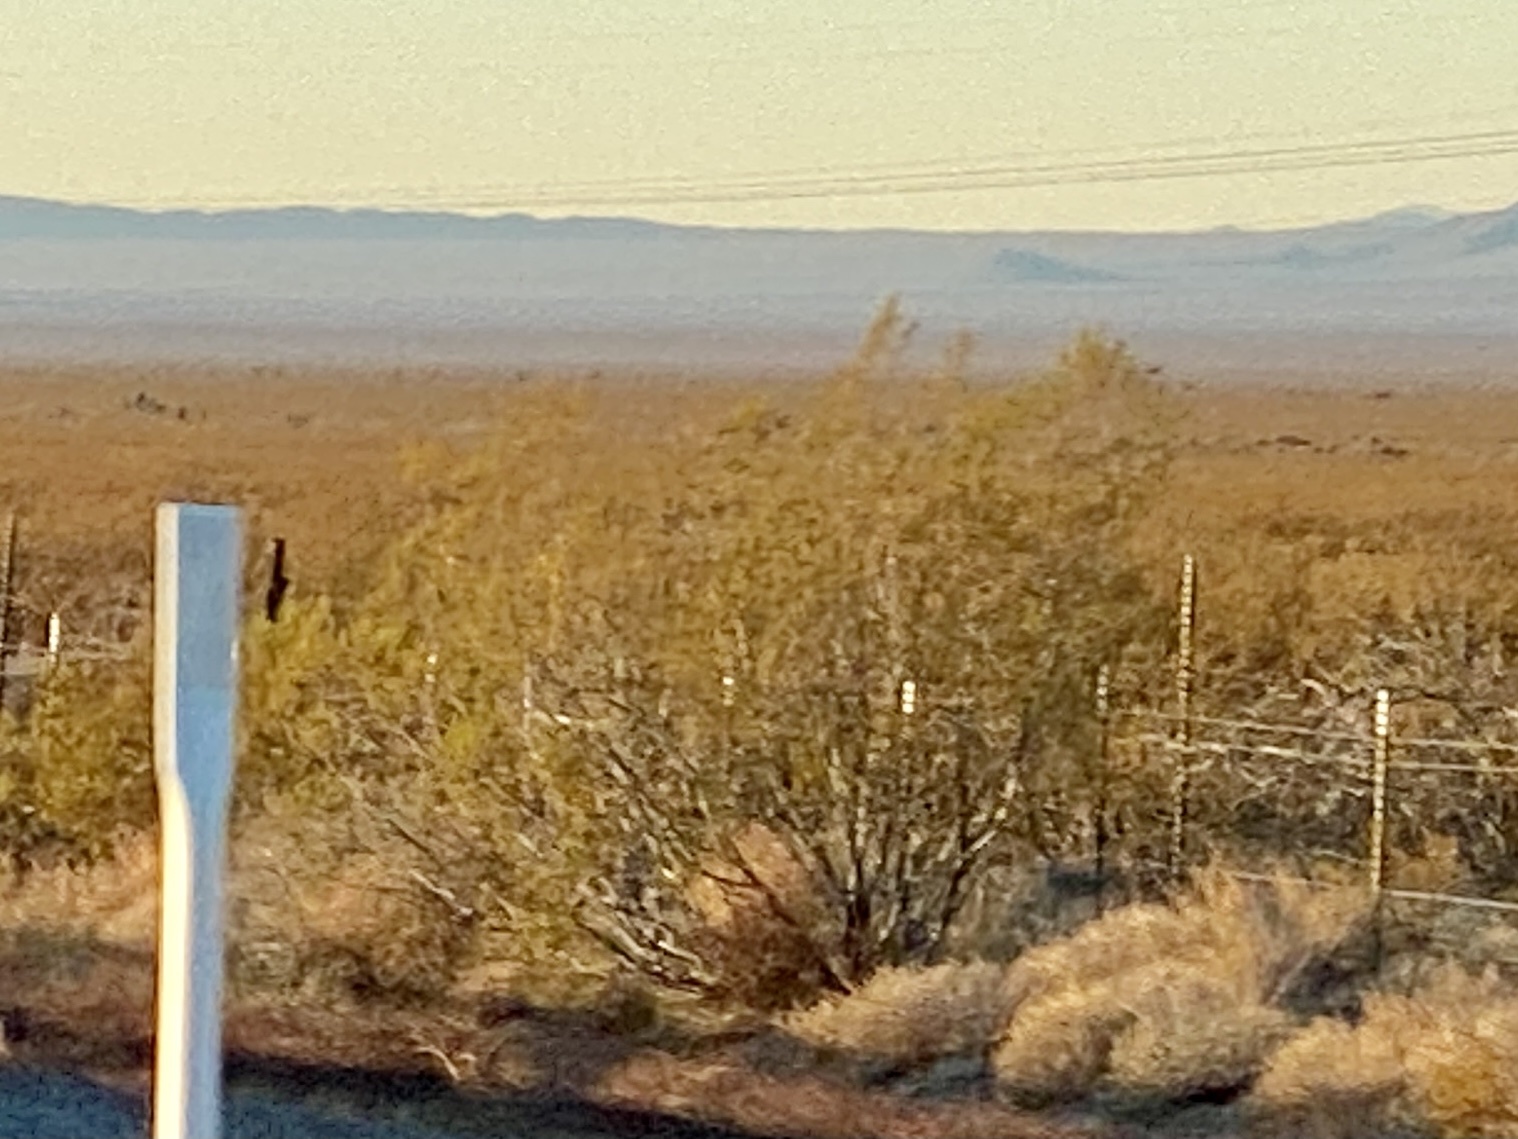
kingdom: Plantae
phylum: Tracheophyta
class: Magnoliopsida
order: Zygophyllales
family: Zygophyllaceae
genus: Larrea
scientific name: Larrea tridentata
